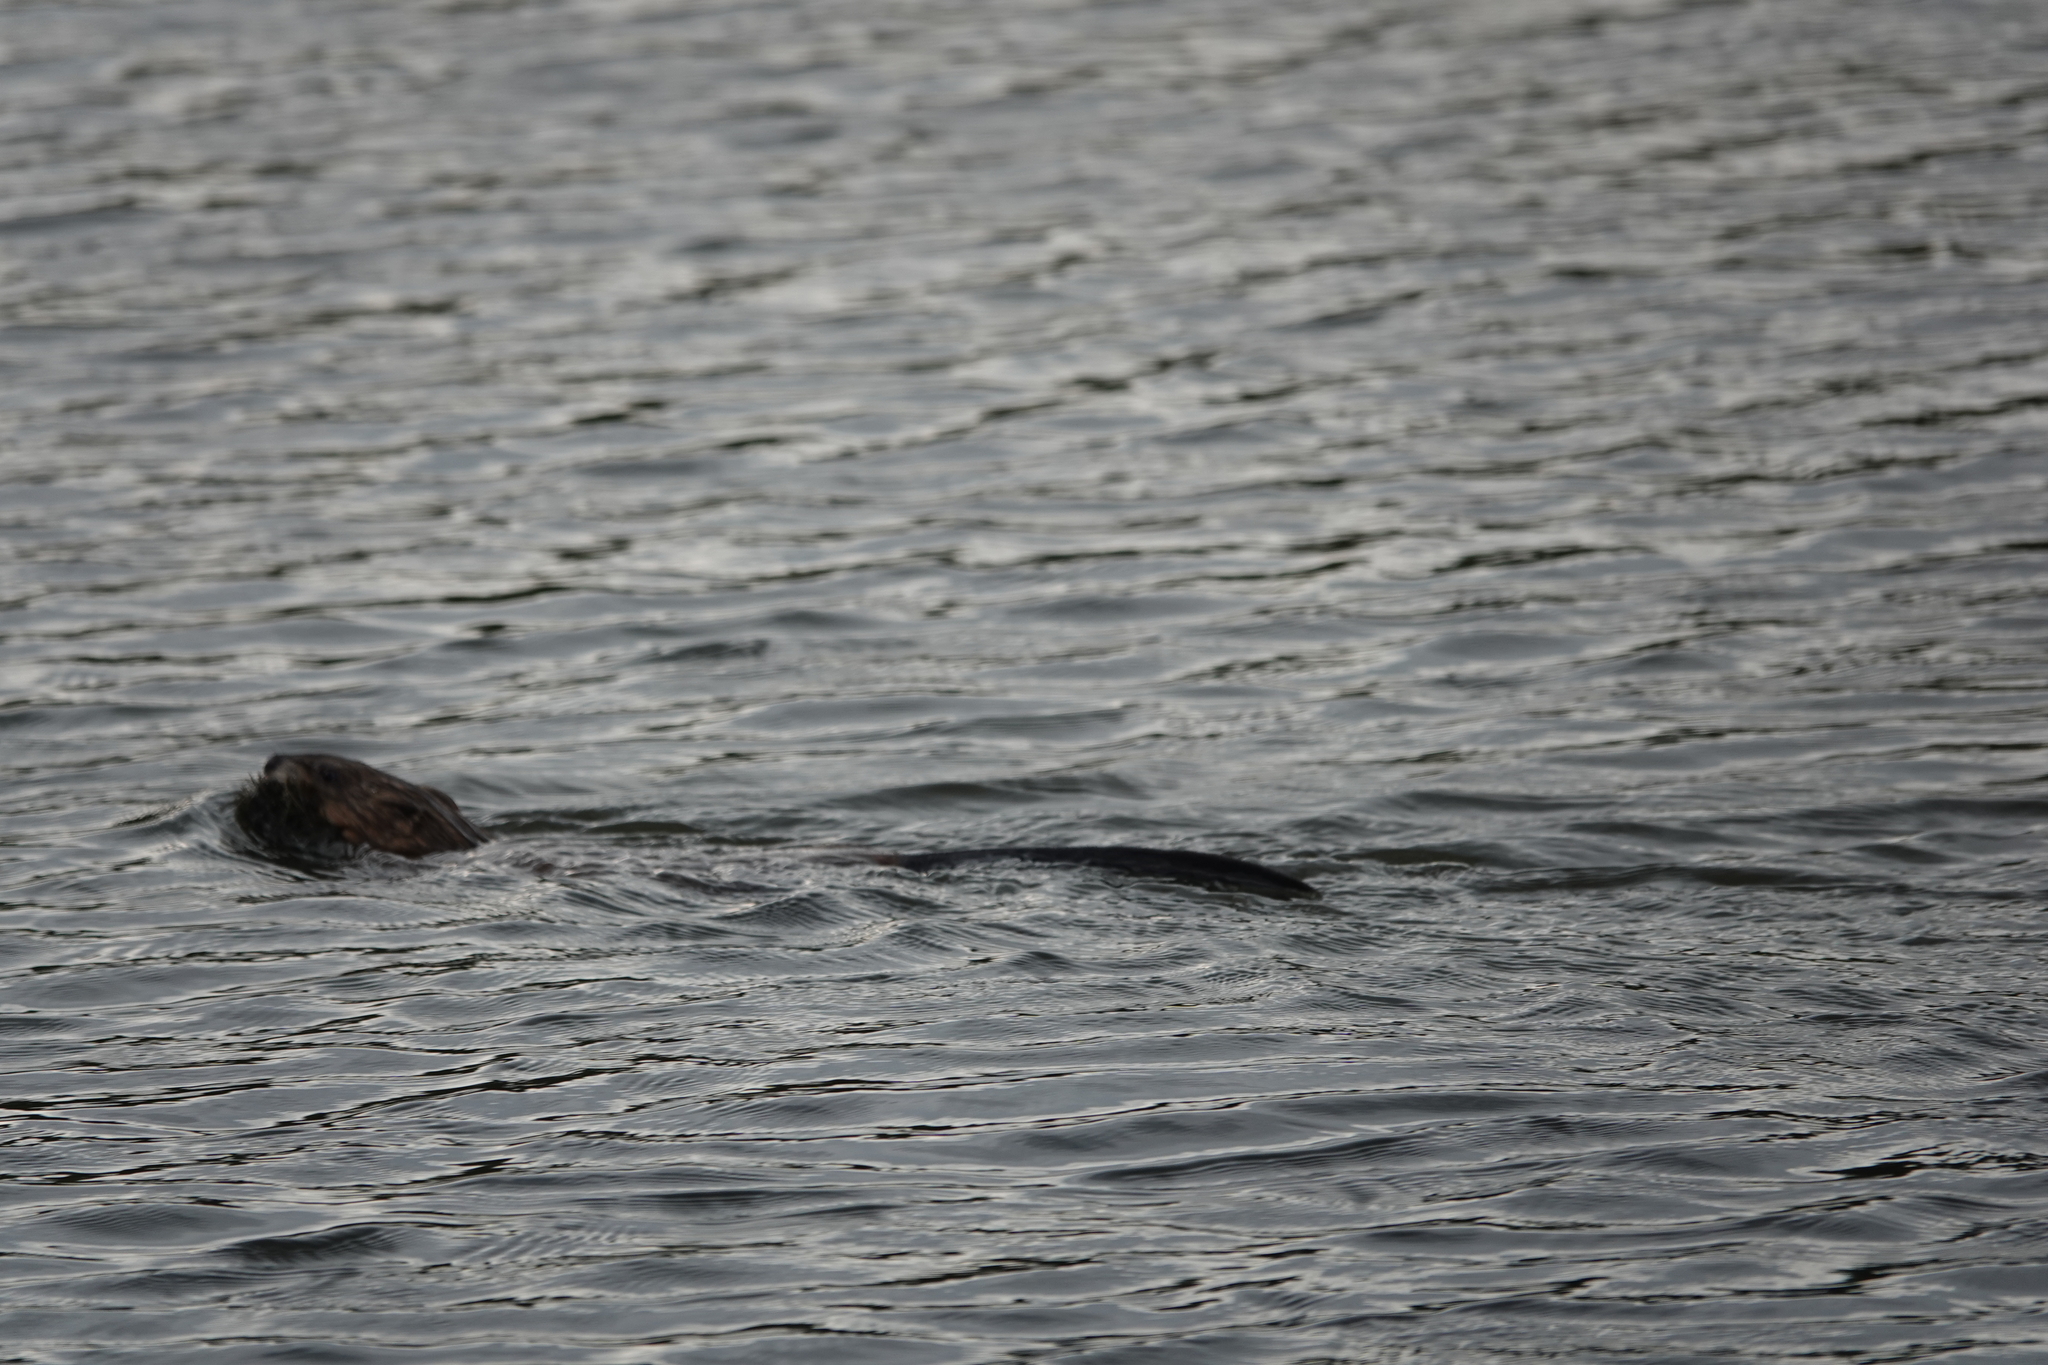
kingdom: Animalia
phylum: Chordata
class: Mammalia
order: Rodentia
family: Cricetidae
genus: Ondatra
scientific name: Ondatra zibethicus
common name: Muskrat
